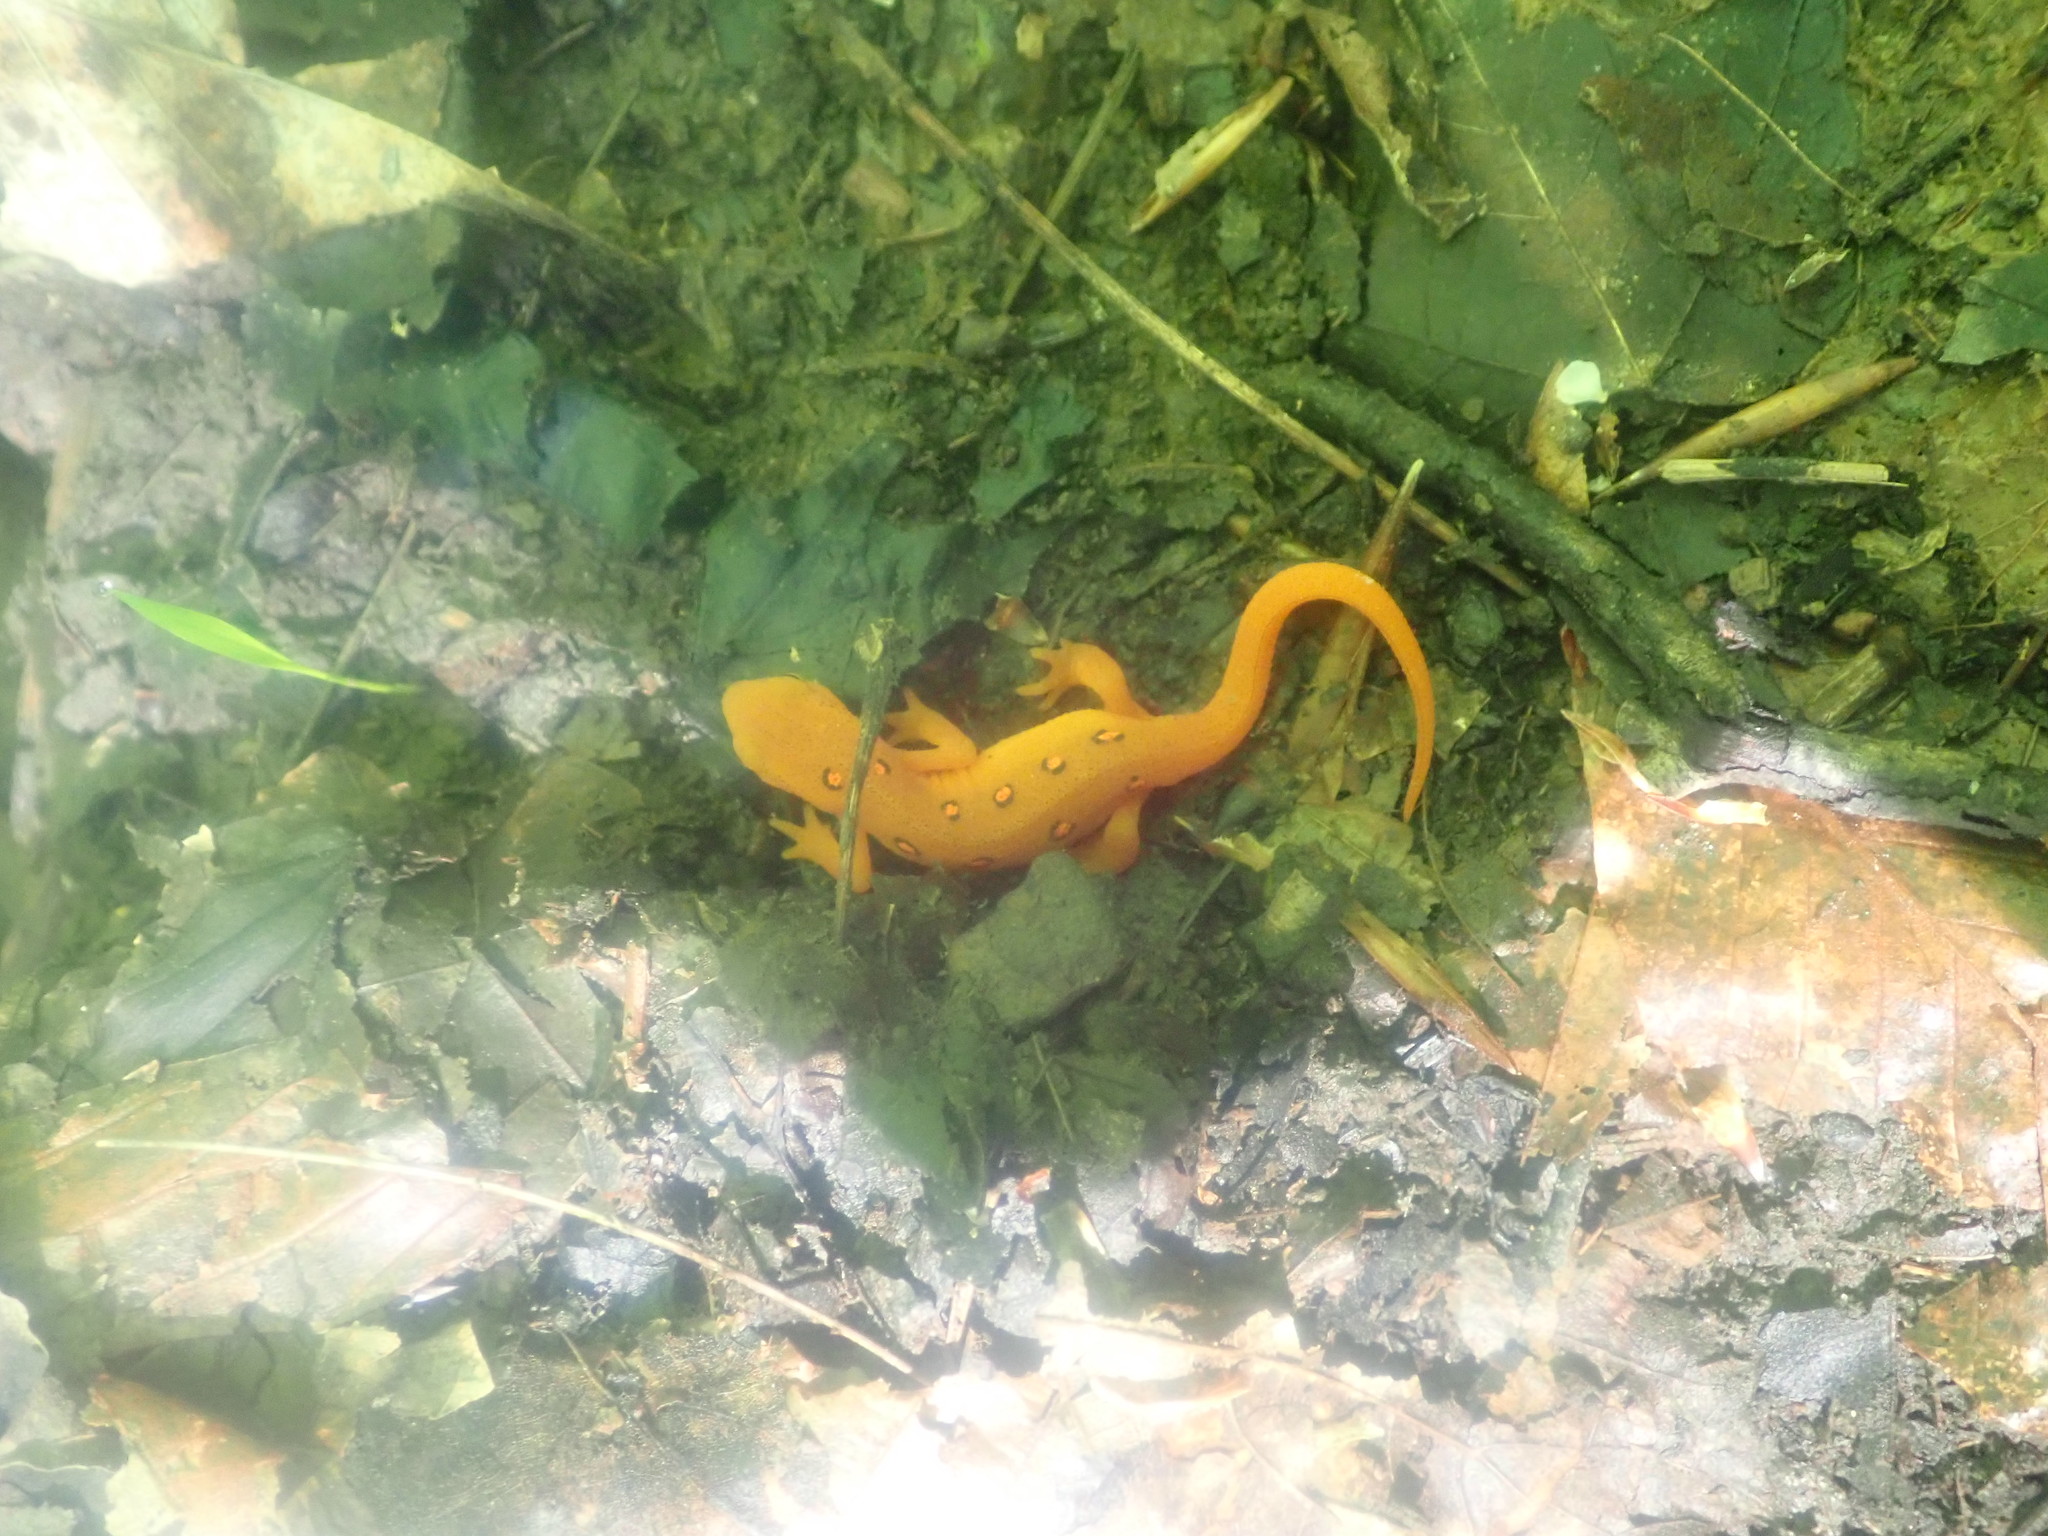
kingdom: Animalia
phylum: Chordata
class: Amphibia
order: Caudata
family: Salamandridae
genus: Notophthalmus
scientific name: Notophthalmus viridescens
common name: Eastern newt
